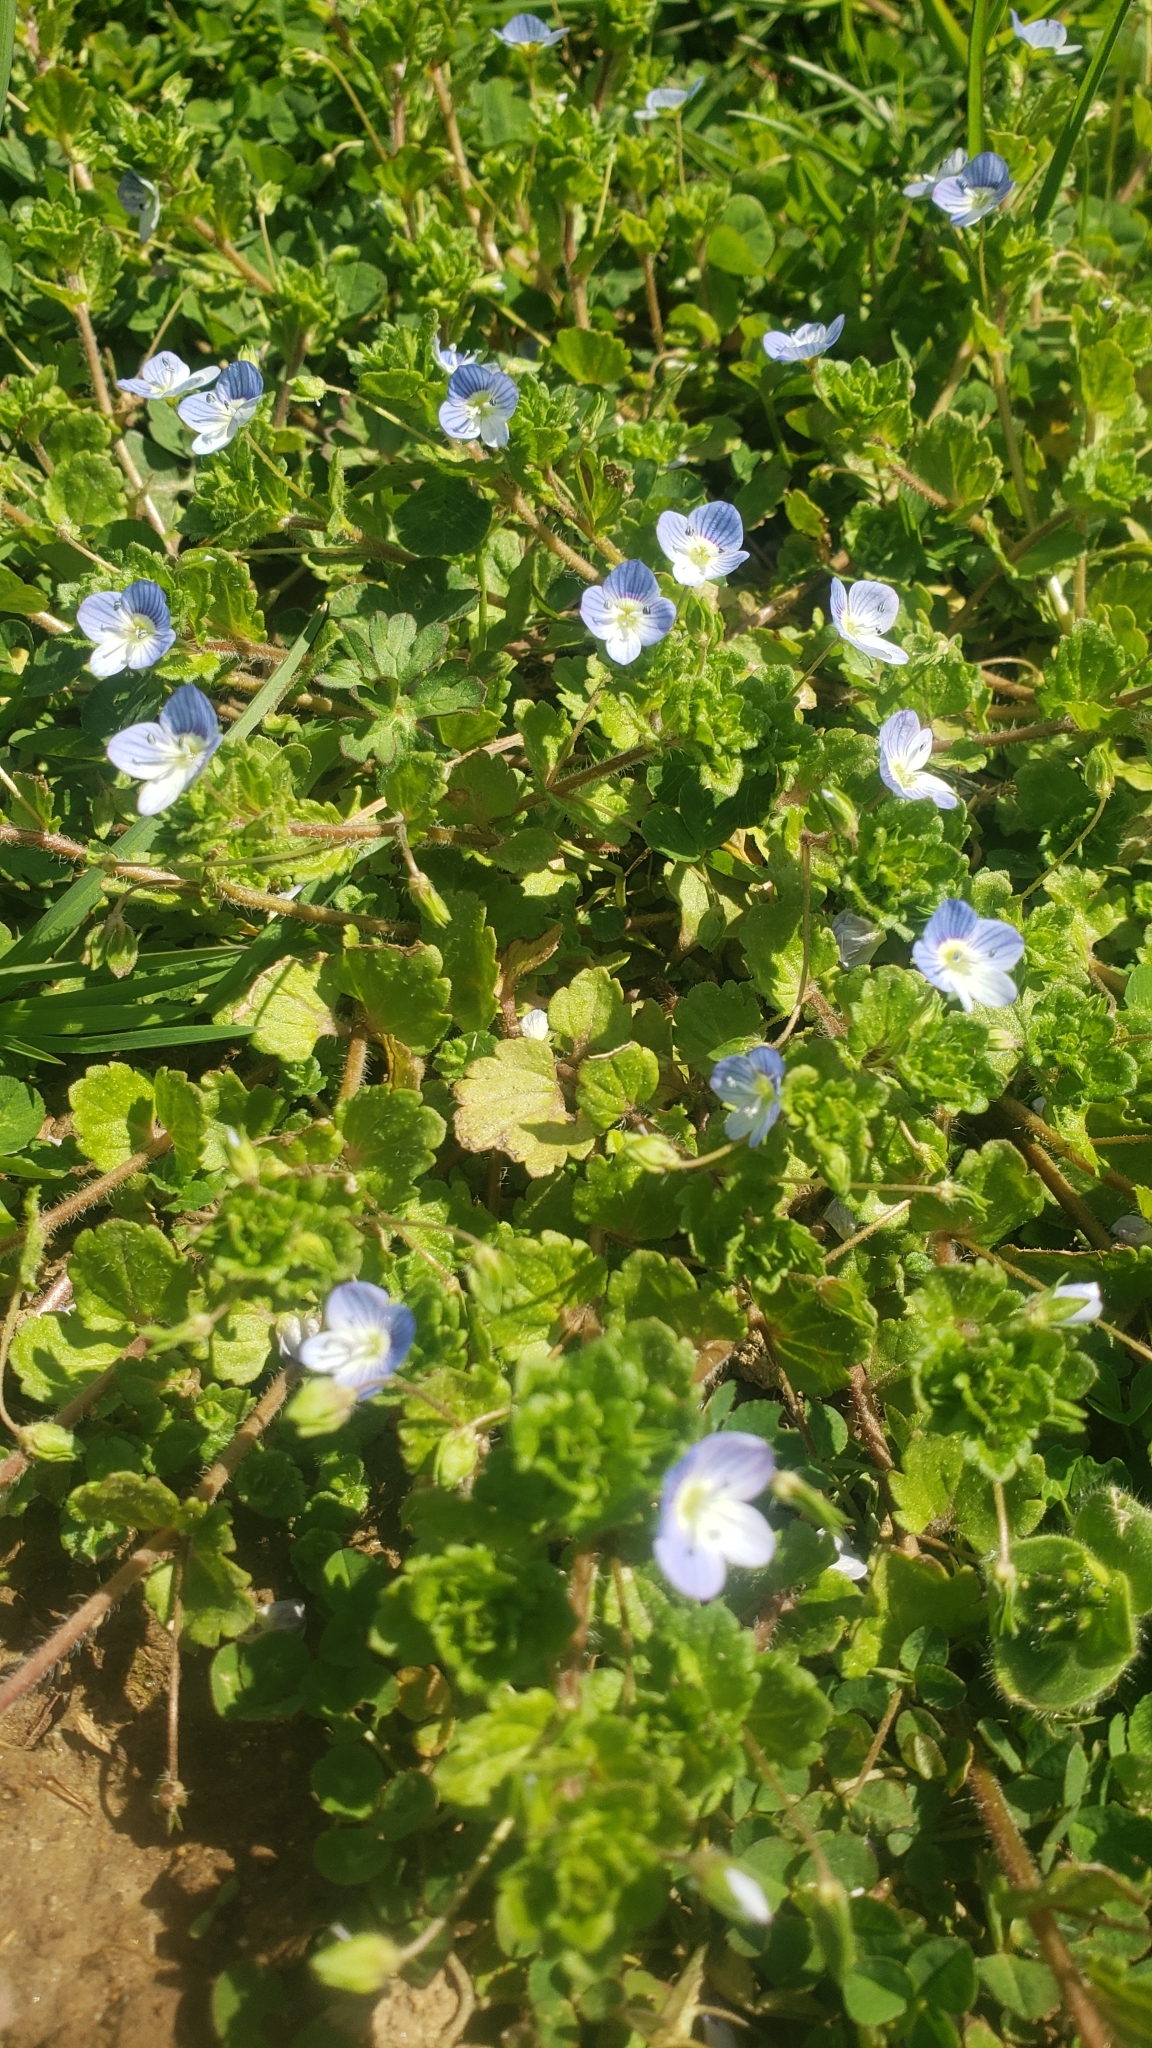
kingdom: Plantae
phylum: Tracheophyta
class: Magnoliopsida
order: Lamiales
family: Plantaginaceae
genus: Veronica
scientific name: Veronica persica
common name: Common field-speedwell
